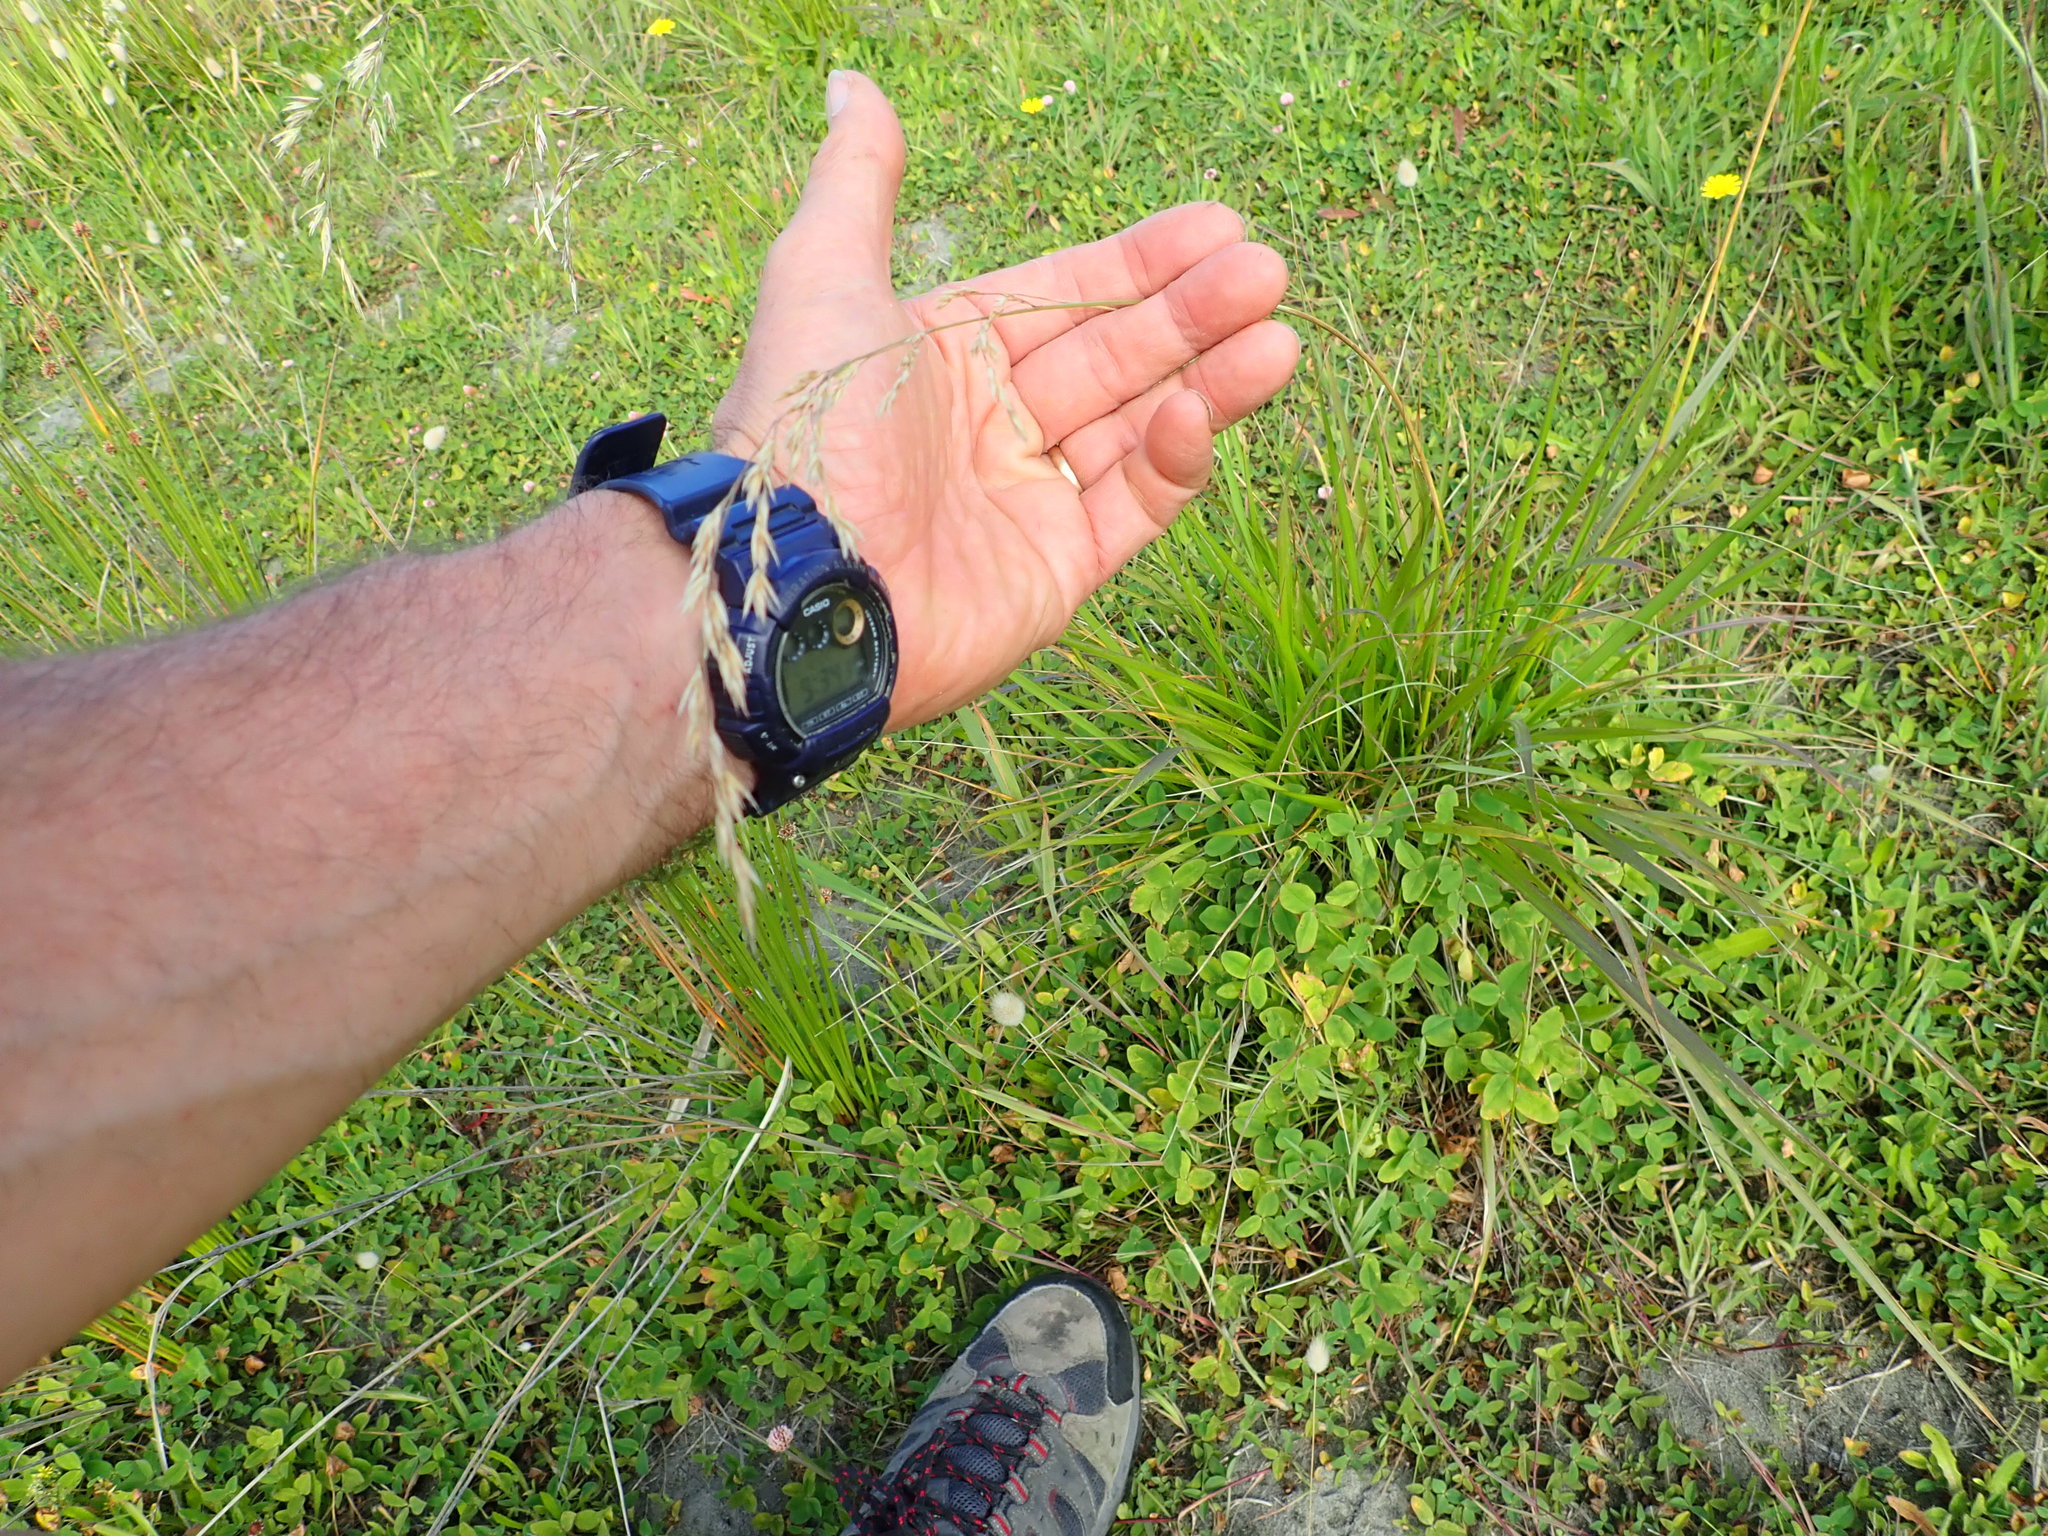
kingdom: Plantae
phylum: Tracheophyta
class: Liliopsida
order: Poales
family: Poaceae
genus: Lolium
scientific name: Lolium arundinaceum
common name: Reed fescue
